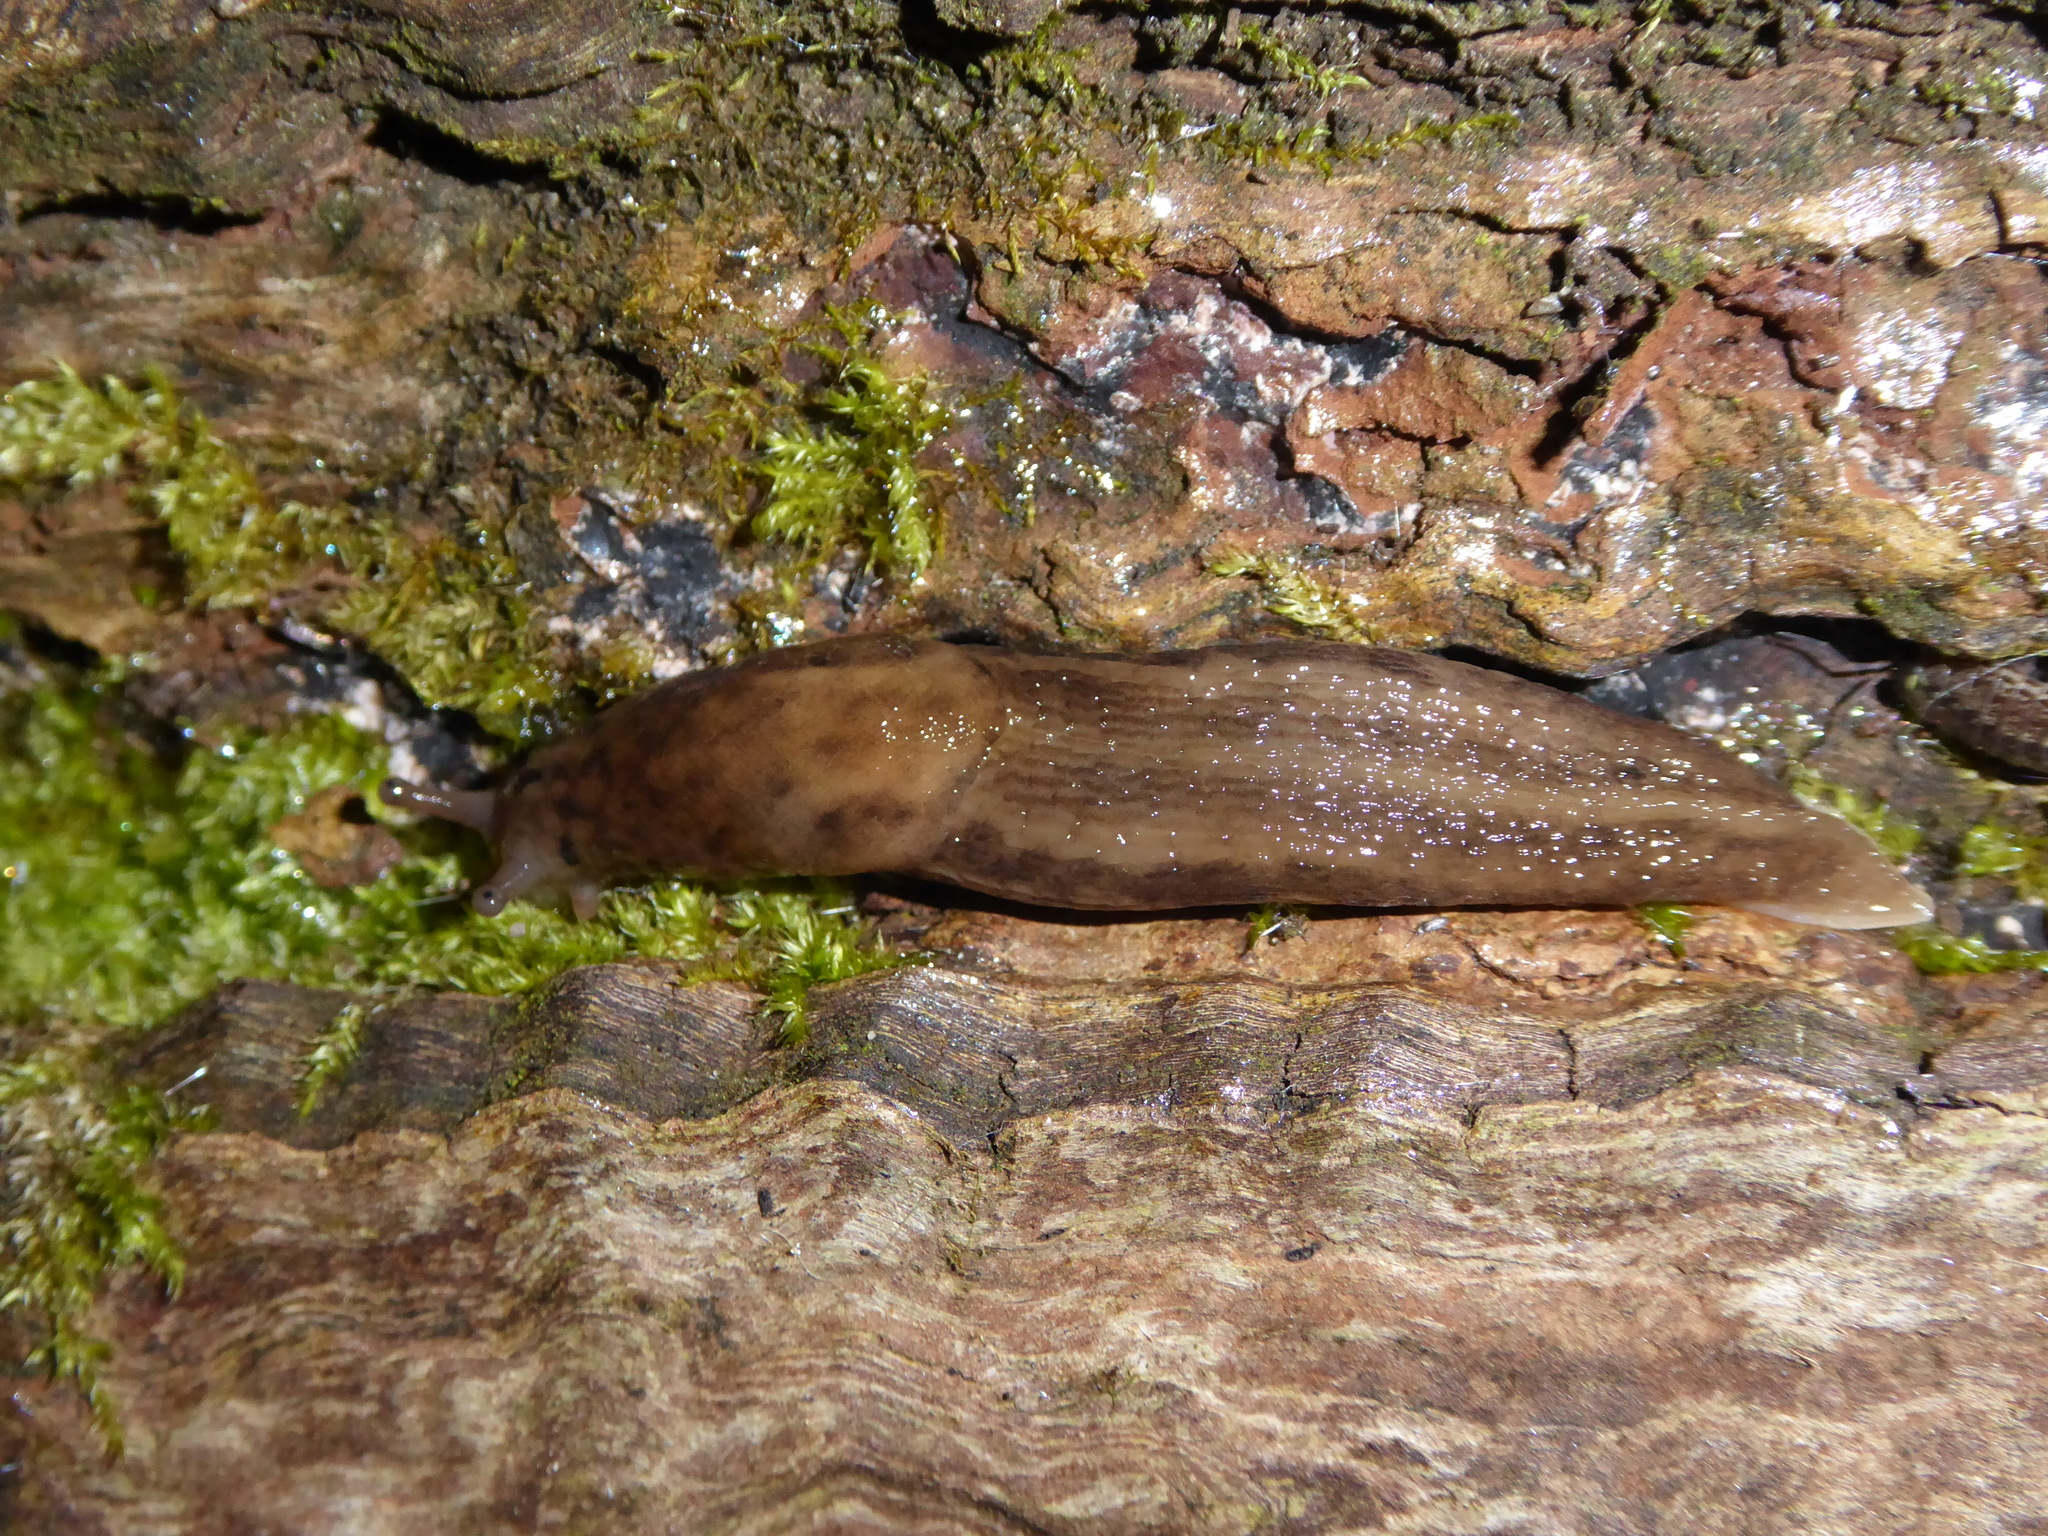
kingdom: Animalia
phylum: Mollusca
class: Gastropoda
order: Stylommatophora
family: Limacidae
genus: Limax
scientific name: Limax maximus
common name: Great grey slug
